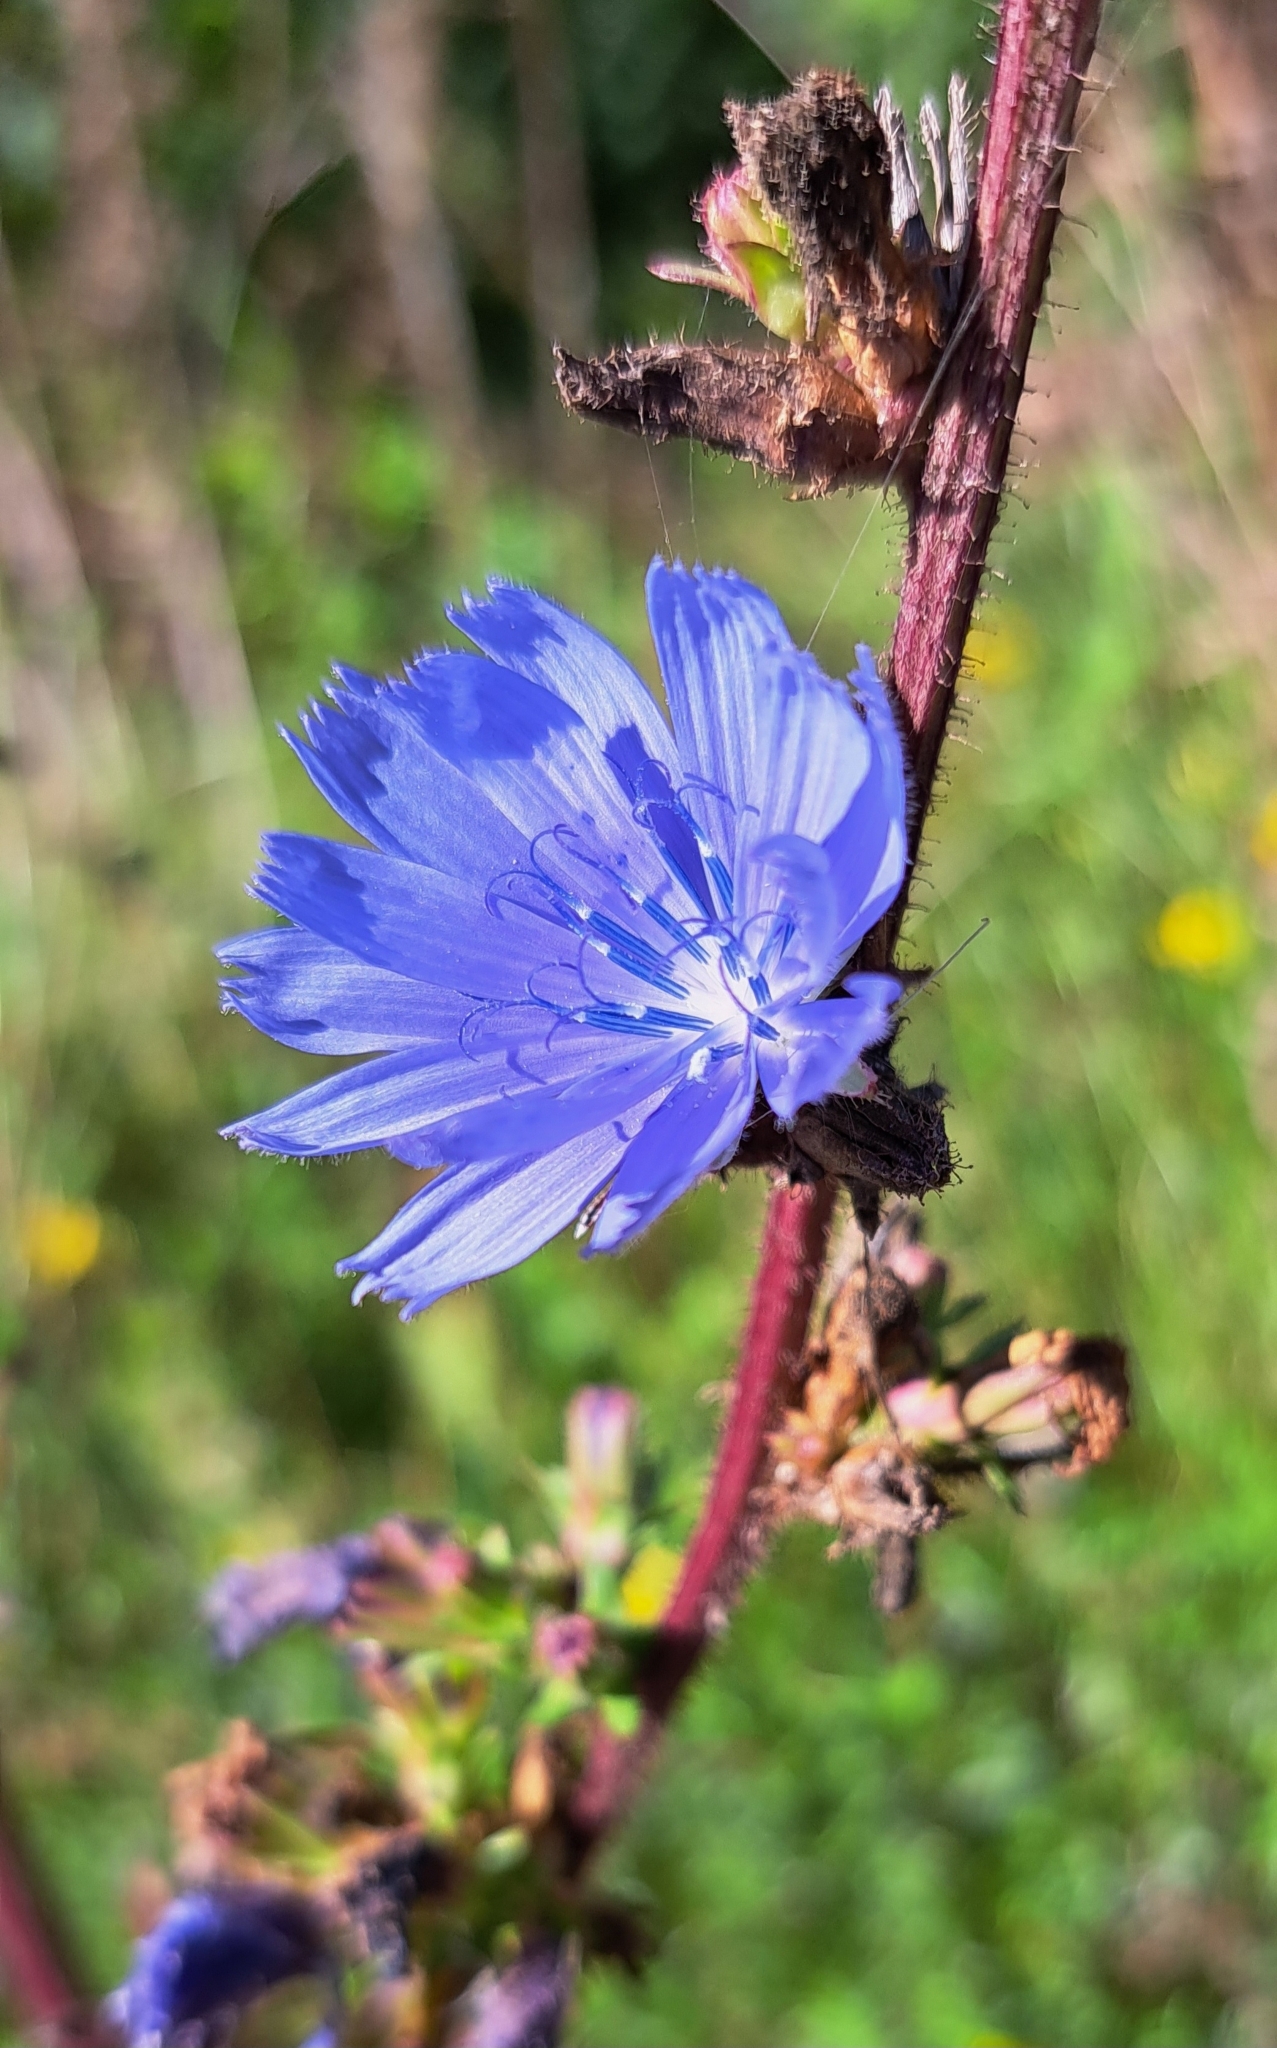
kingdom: Plantae
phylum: Tracheophyta
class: Magnoliopsida
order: Asterales
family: Asteraceae
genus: Cichorium
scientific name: Cichorium intybus
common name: Chicory
